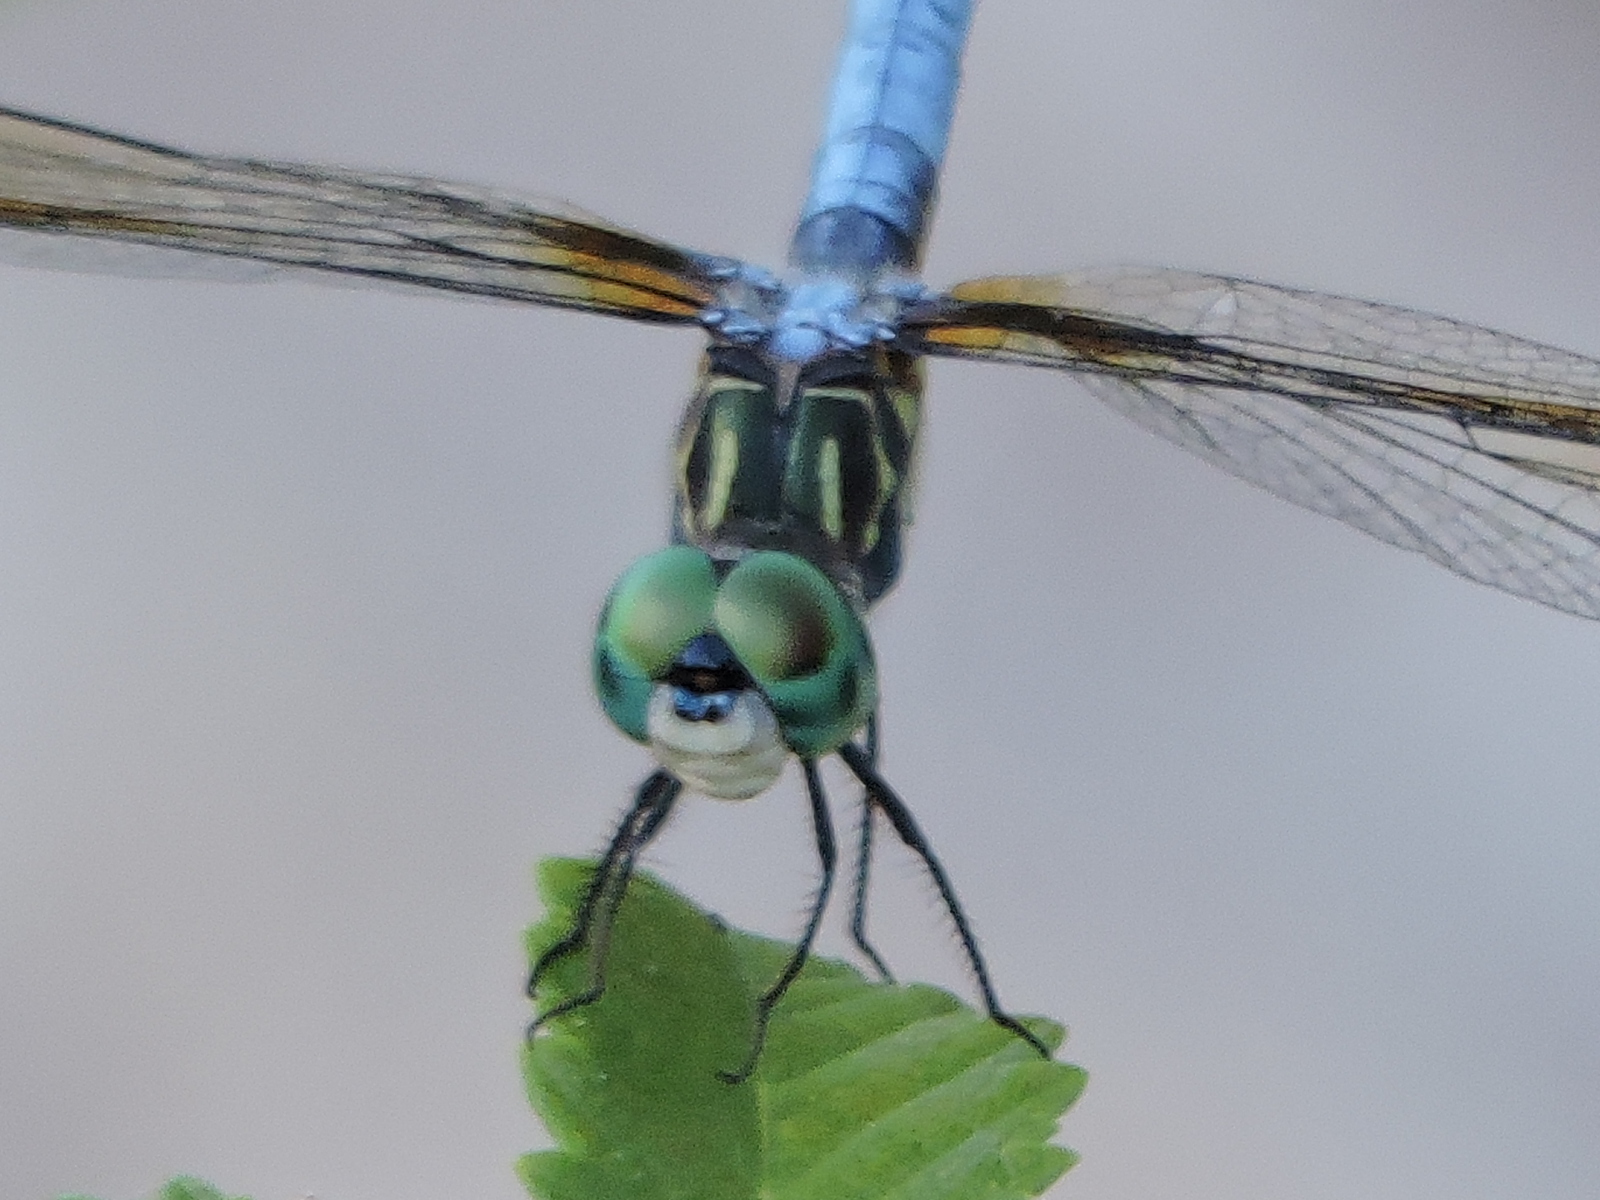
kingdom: Animalia
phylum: Arthropoda
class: Insecta
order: Odonata
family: Libellulidae
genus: Pachydiplax
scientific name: Pachydiplax longipennis
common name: Blue dasher
